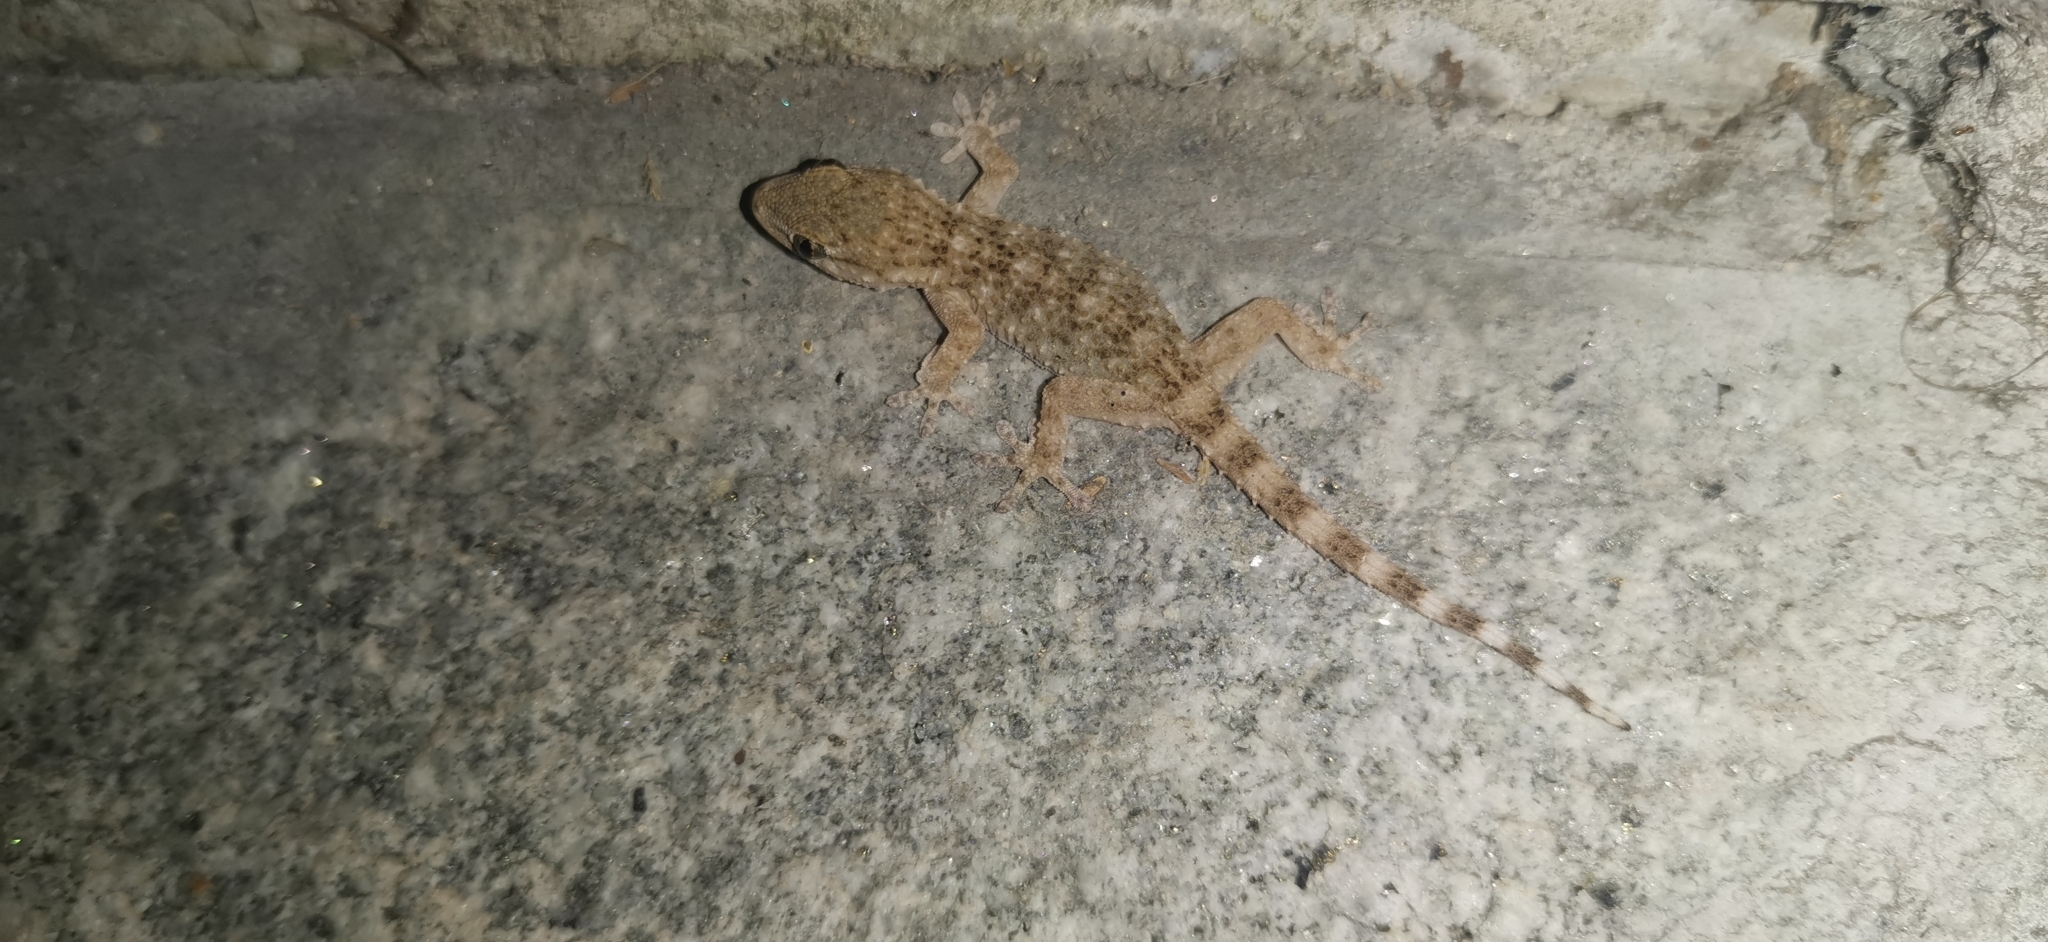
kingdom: Animalia
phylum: Chordata
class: Squamata
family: Phyllodactylidae
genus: Tarentola
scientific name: Tarentola mauritanica
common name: Moorish gecko
